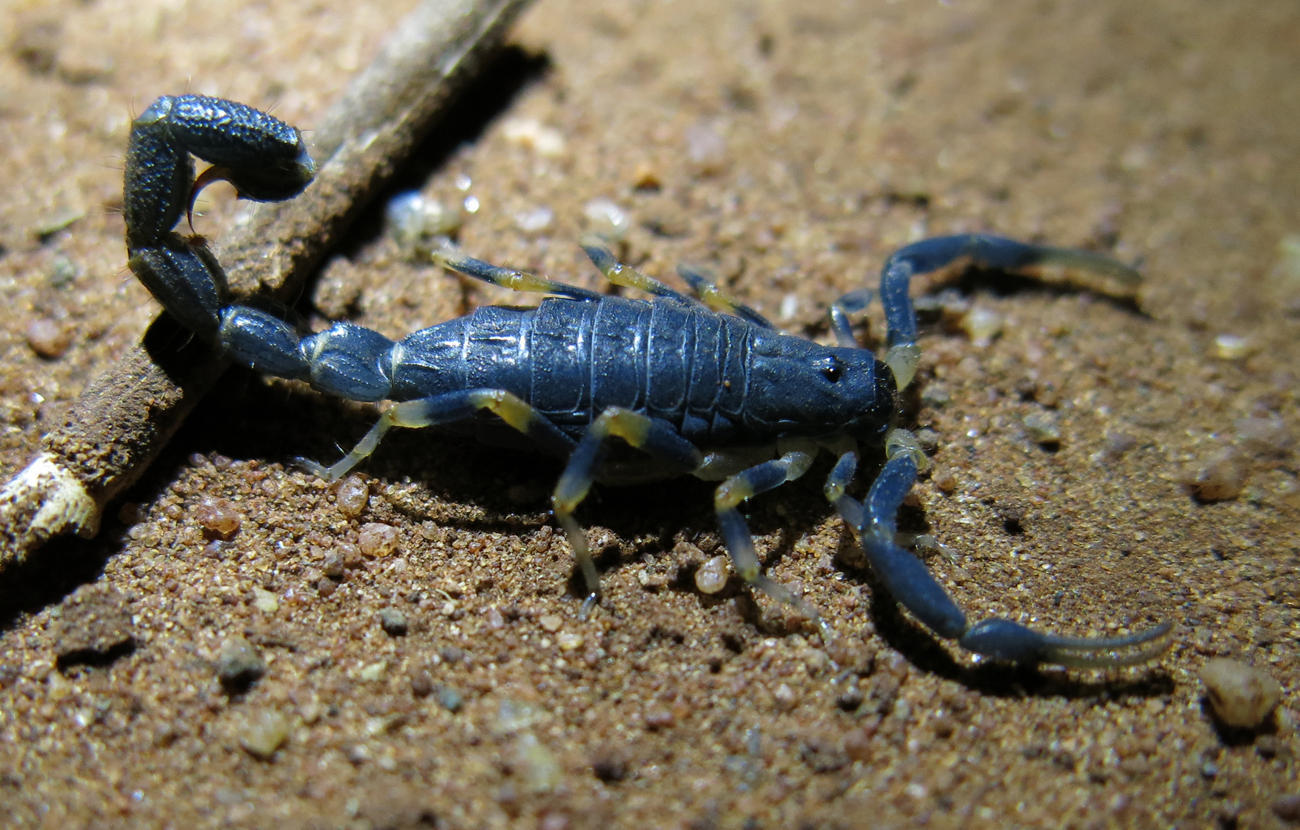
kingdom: Animalia
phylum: Arthropoda
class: Arachnida
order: Scorpiones
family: Buthidae
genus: Uroplectes
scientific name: Uroplectes flavoviridis
